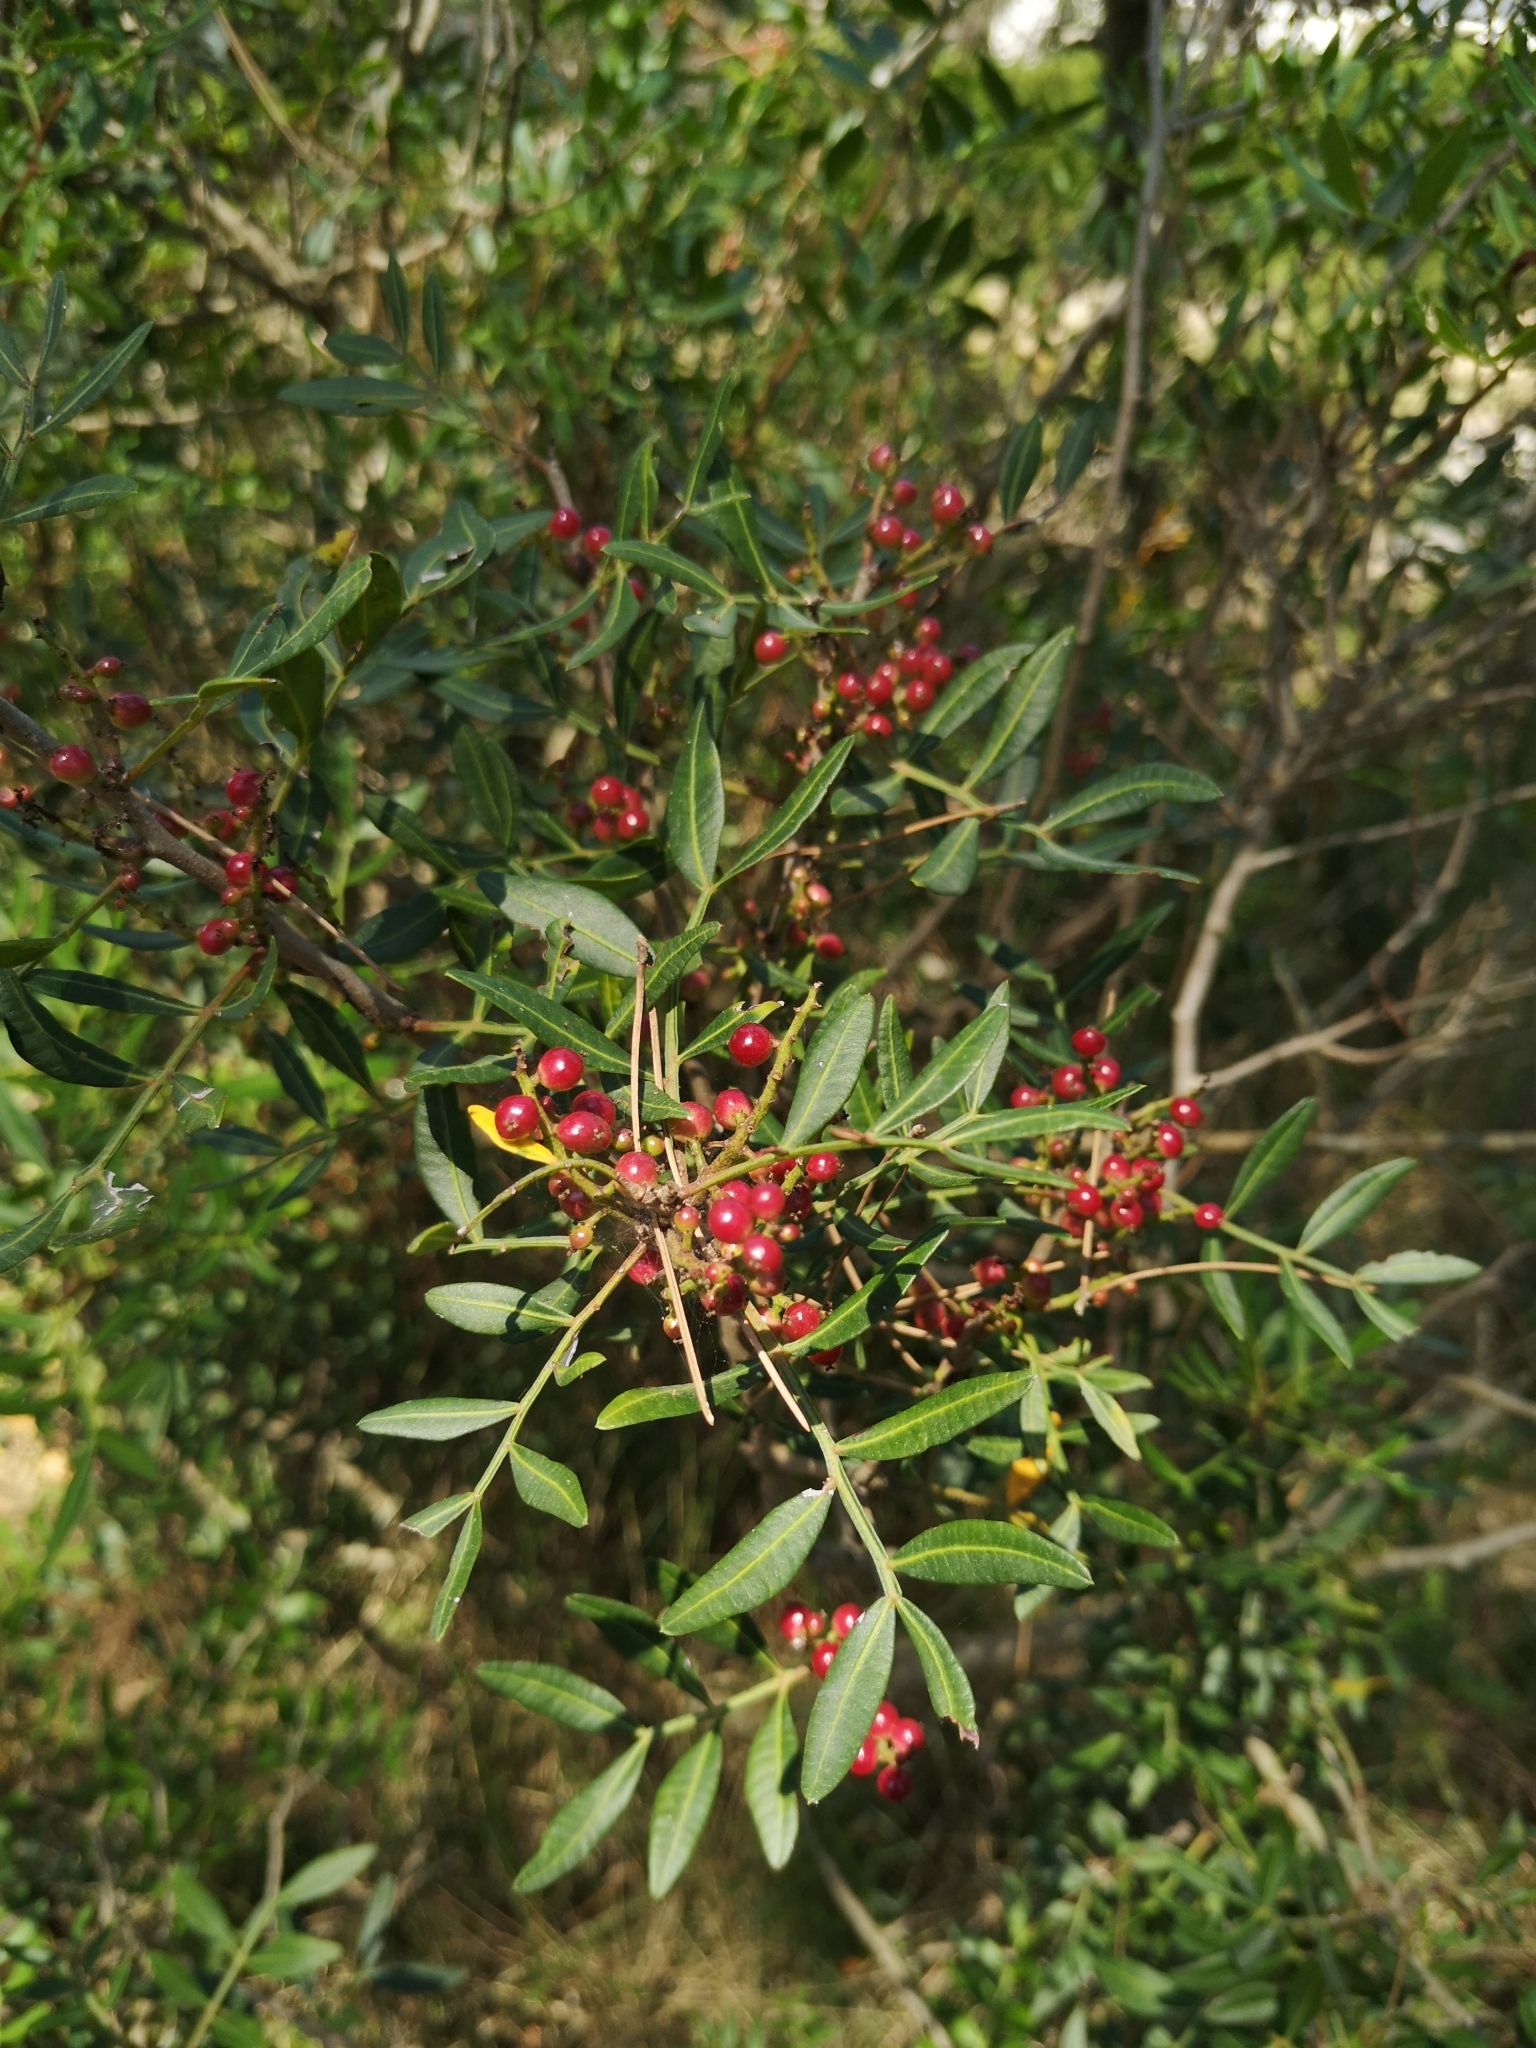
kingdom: Plantae
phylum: Tracheophyta
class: Magnoliopsida
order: Sapindales
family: Anacardiaceae
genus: Pistacia
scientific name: Pistacia lentiscus
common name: Lentisk
